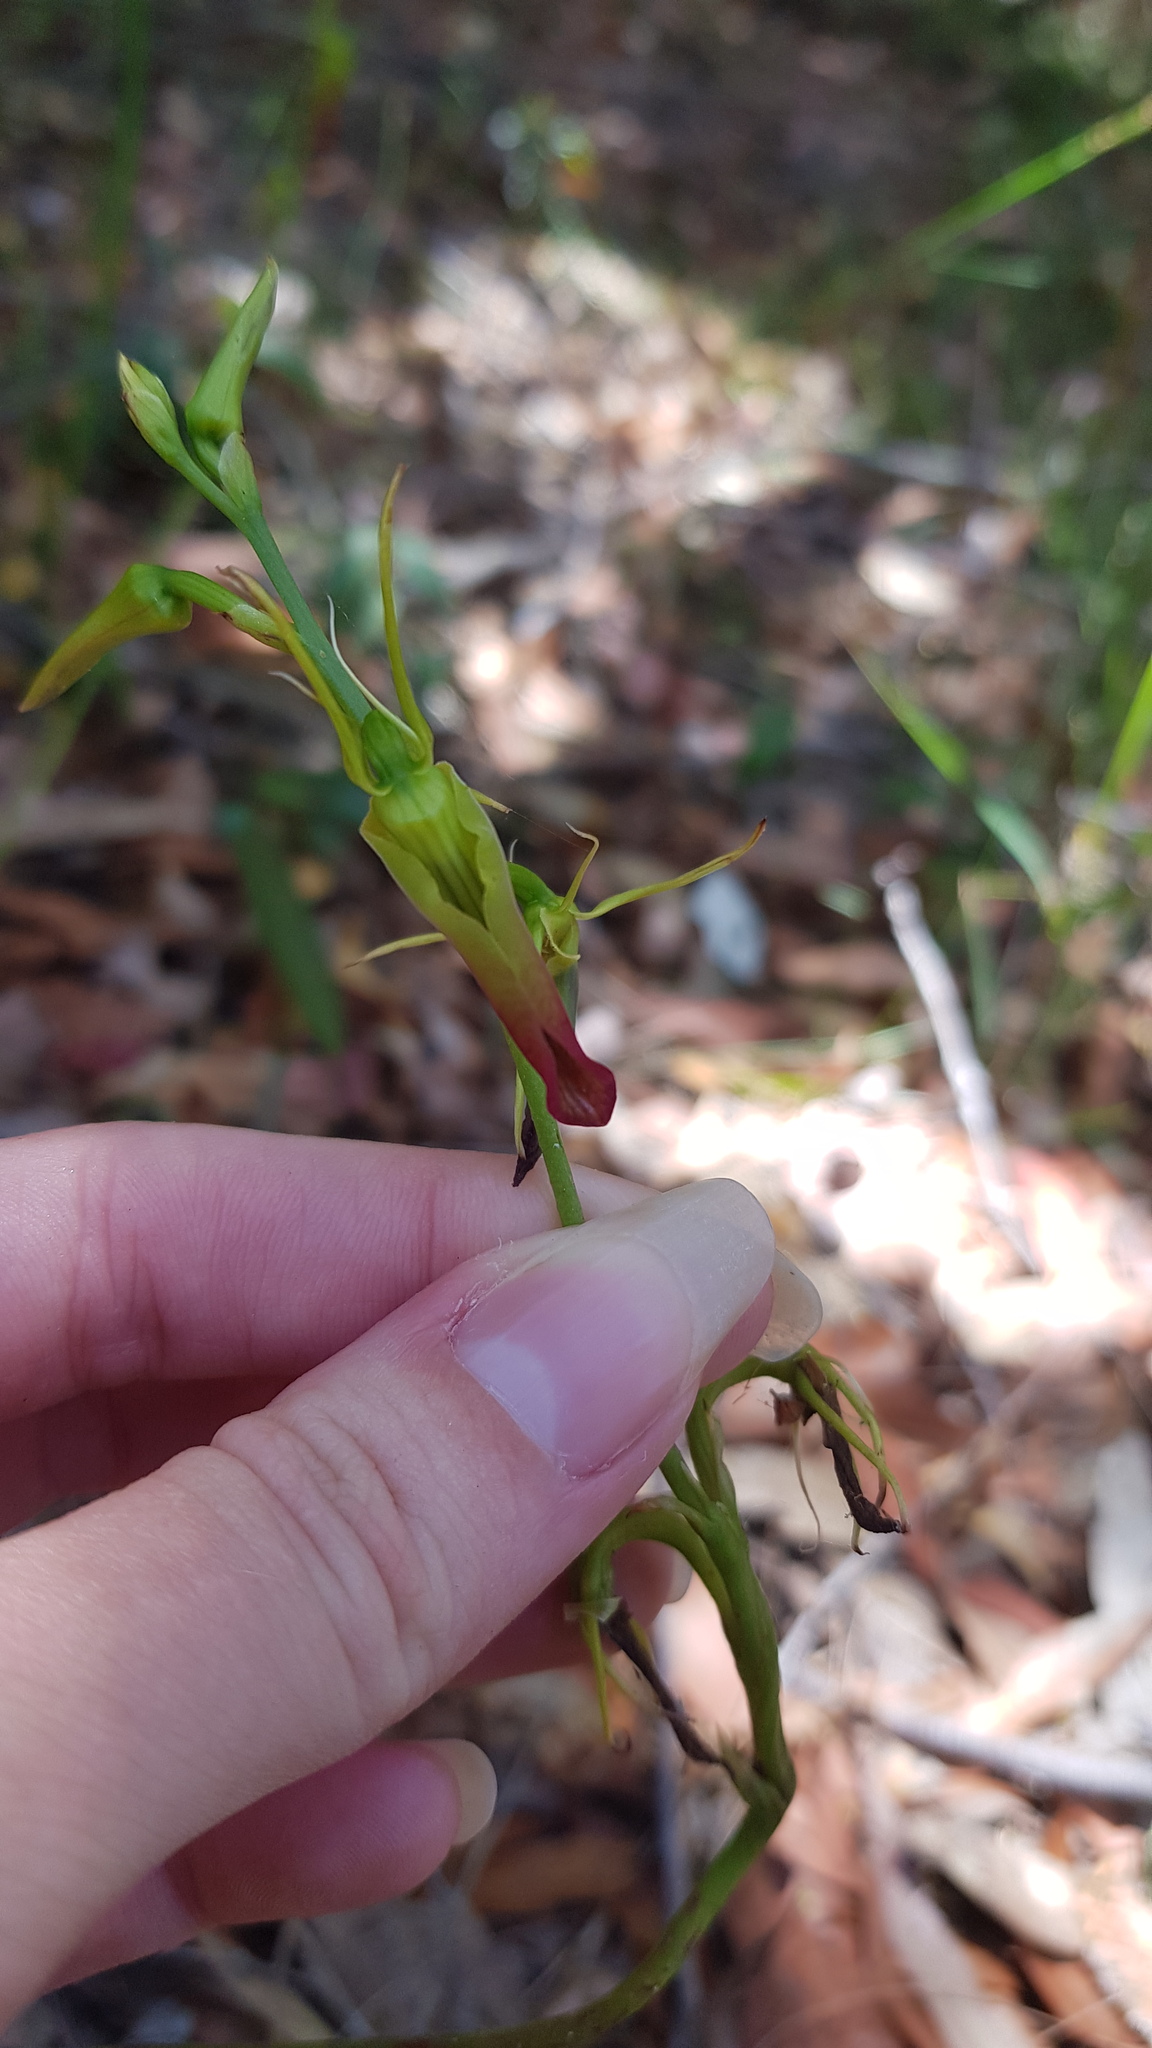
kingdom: Plantae
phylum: Tracheophyta
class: Liliopsida
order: Asparagales
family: Orchidaceae
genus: Cryptostylis
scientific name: Cryptostylis subulata
